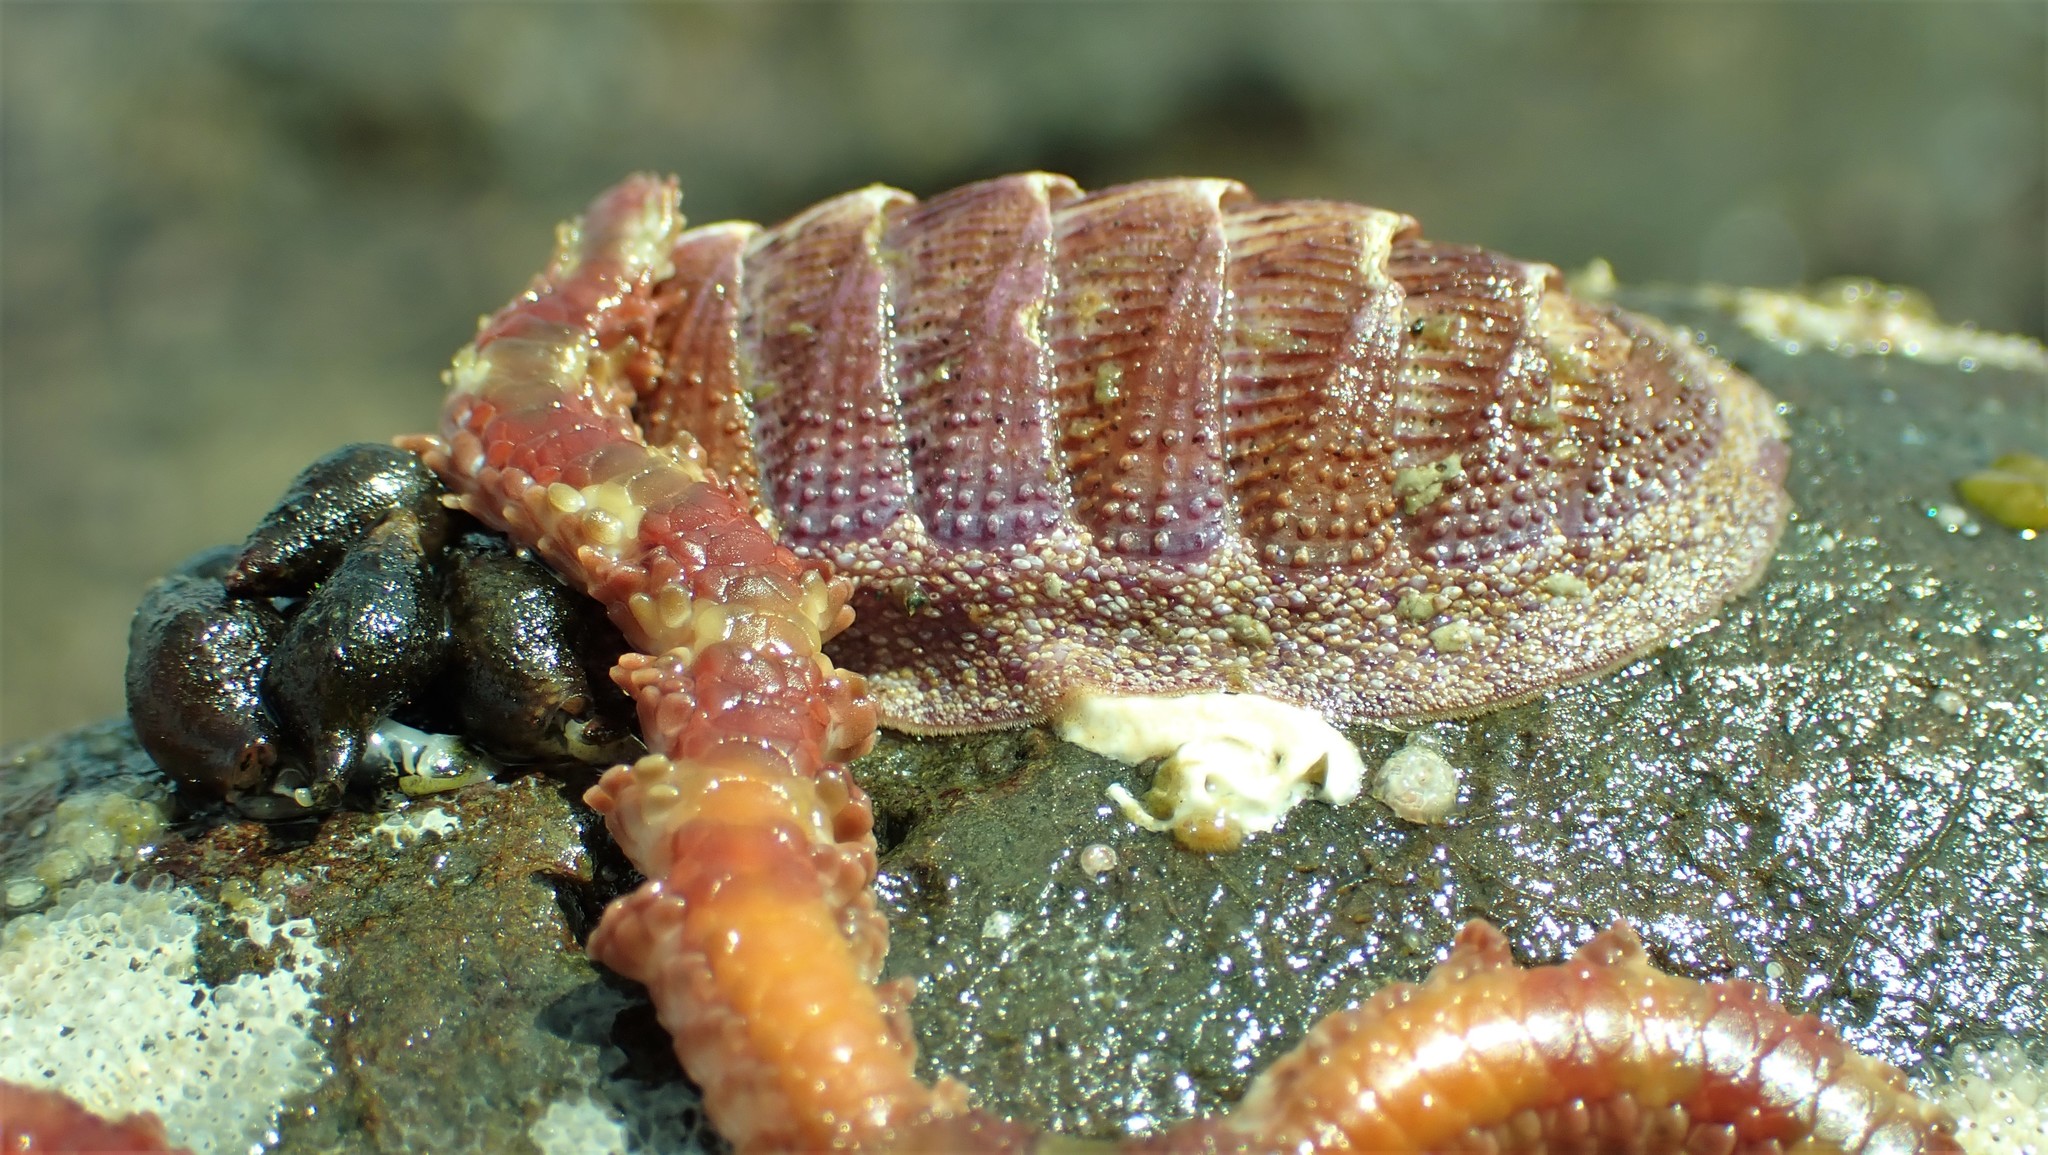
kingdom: Animalia
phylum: Mollusca
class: Polyplacophora
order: Chitonida
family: Ischnochitonidae
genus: Lepidozona
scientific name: Lepidozona mertensii
